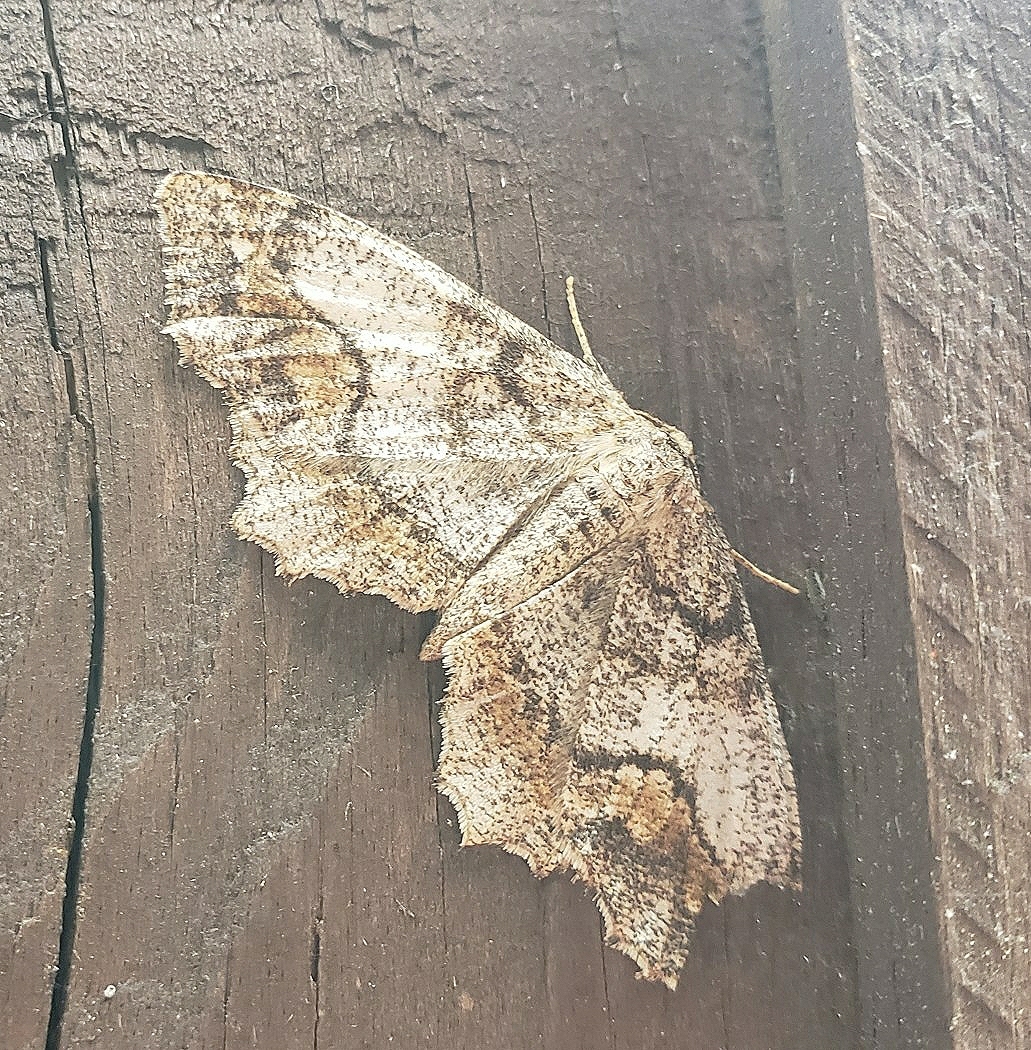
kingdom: Animalia
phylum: Arthropoda
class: Insecta
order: Lepidoptera
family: Geometridae
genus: Hypagyrtis
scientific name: Hypagyrtis unipunctata
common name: One-spotted variant
